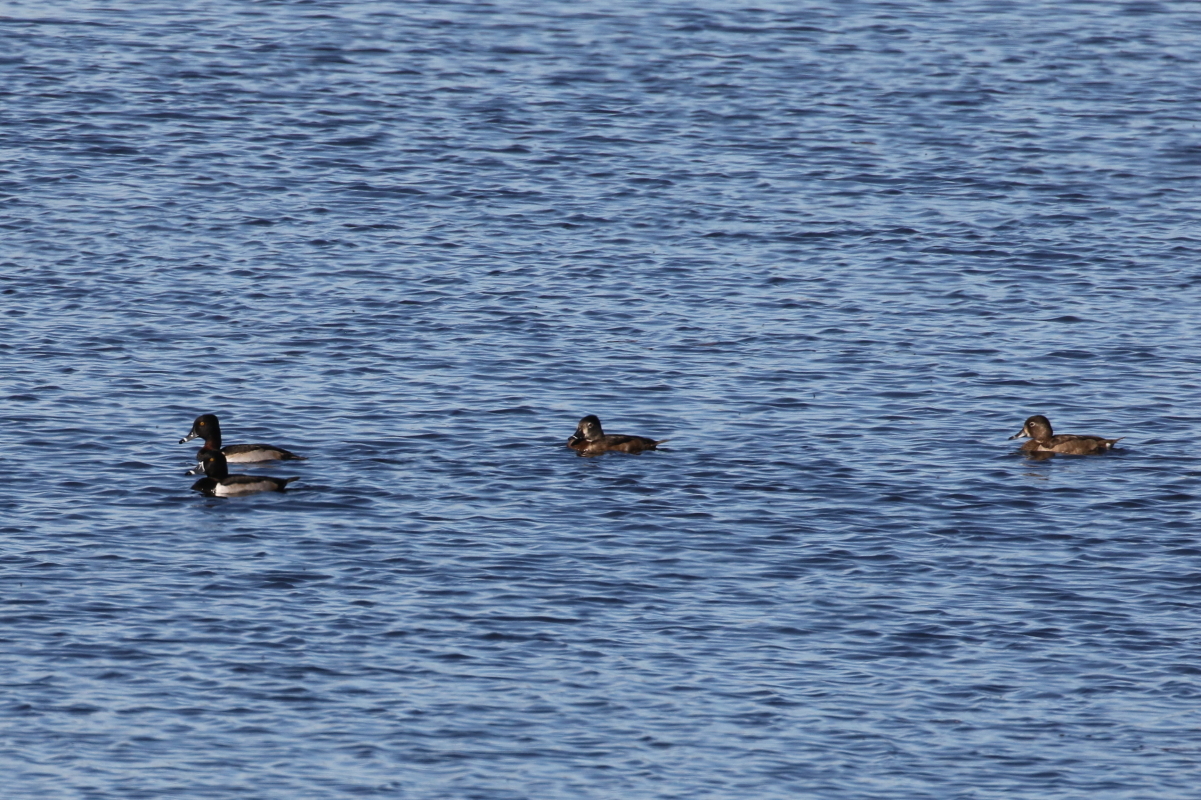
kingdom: Animalia
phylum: Chordata
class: Aves
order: Anseriformes
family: Anatidae
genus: Aythya
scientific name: Aythya collaris
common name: Ring-necked duck
